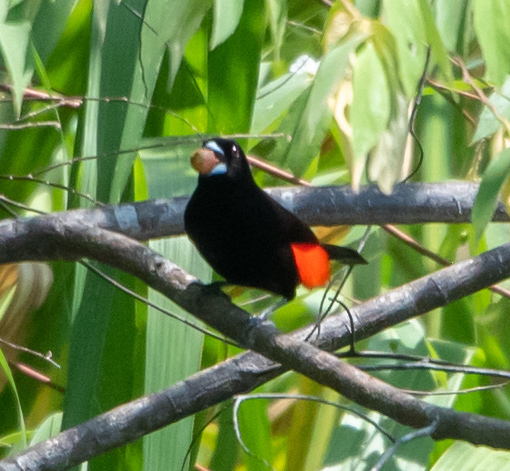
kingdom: Animalia
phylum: Chordata
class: Aves
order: Passeriformes
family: Thraupidae
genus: Ramphocelus
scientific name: Ramphocelus passerinii
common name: Passerini's tanager
